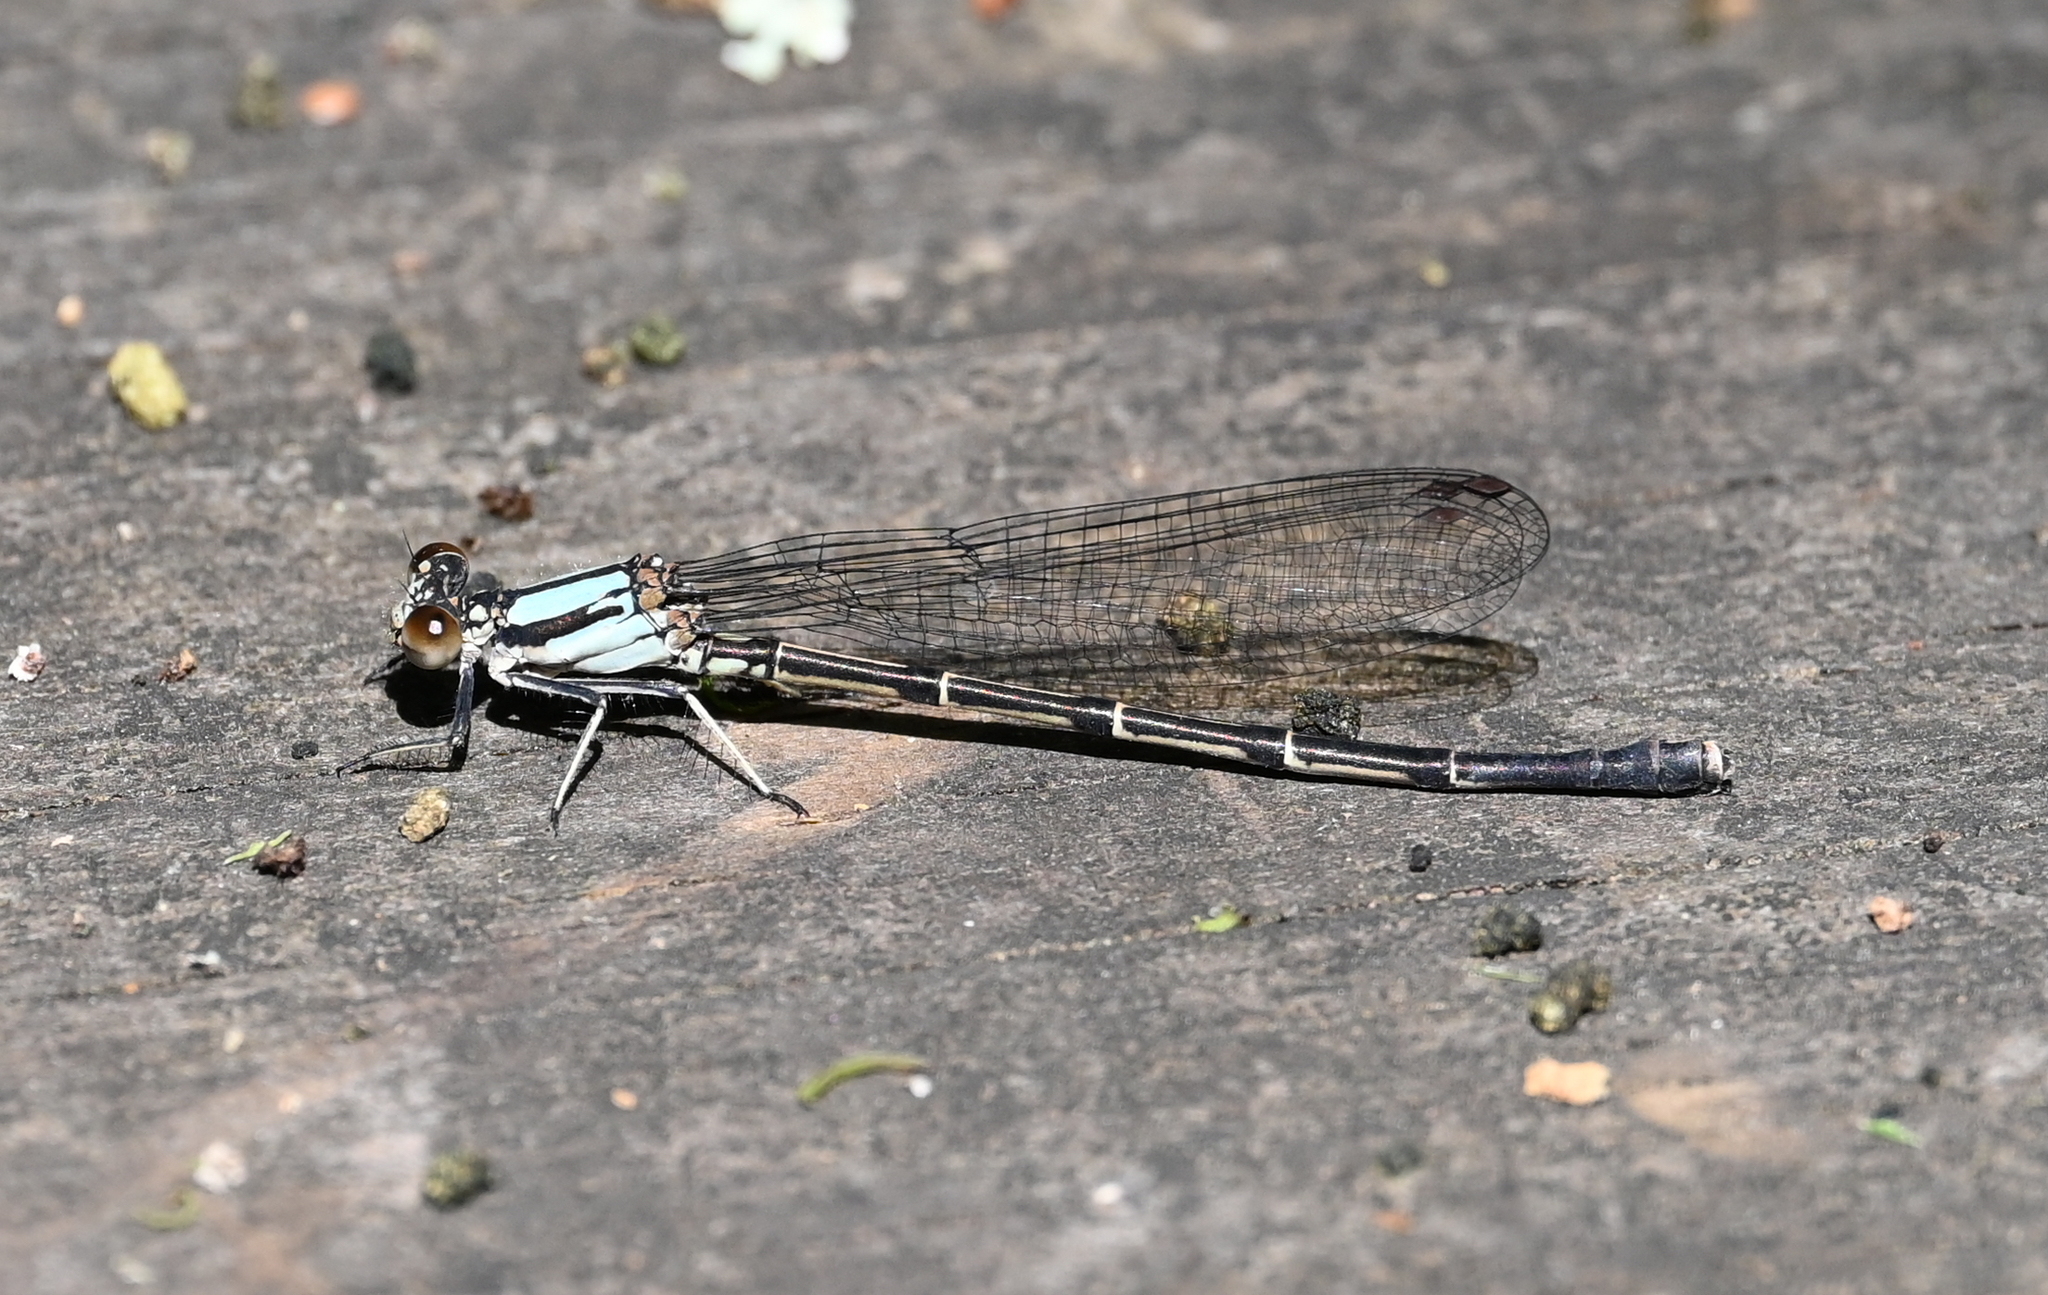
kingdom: Animalia
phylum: Arthropoda
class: Insecta
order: Odonata
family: Coenagrionidae
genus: Argia
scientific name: Argia tibialis
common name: Blue-tipped dancer
